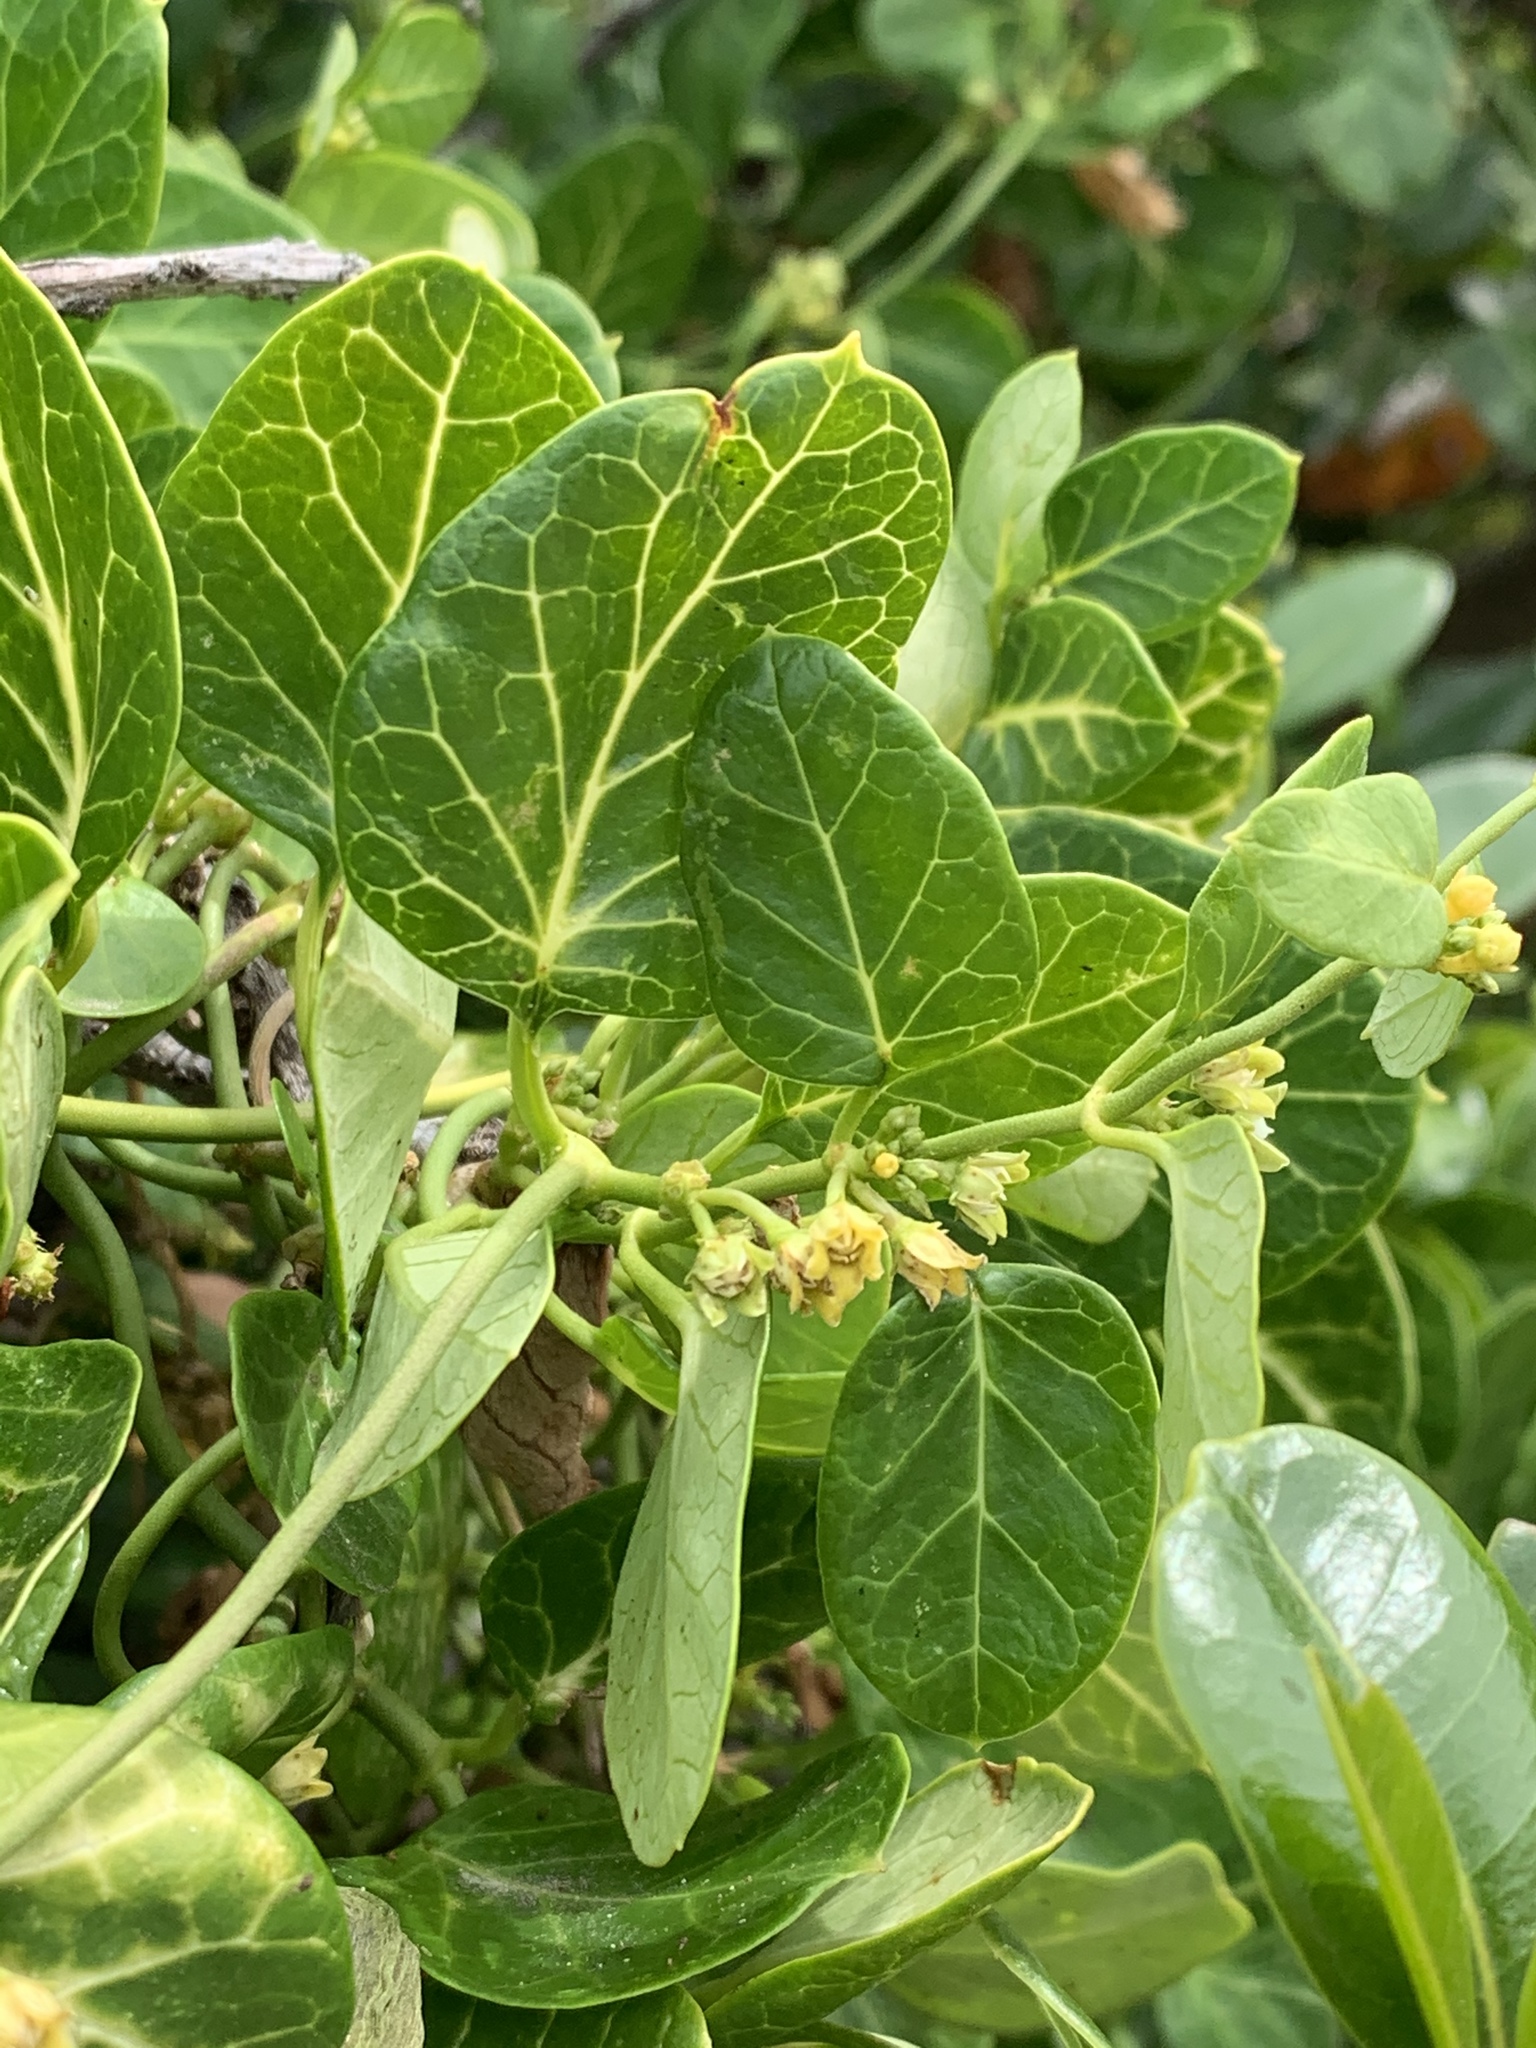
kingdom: Plantae
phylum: Tracheophyta
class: Magnoliopsida
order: Gentianales
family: Apocynaceae
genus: Cynanchum
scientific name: Cynanchum obtusifolium
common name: Monkey-rope
